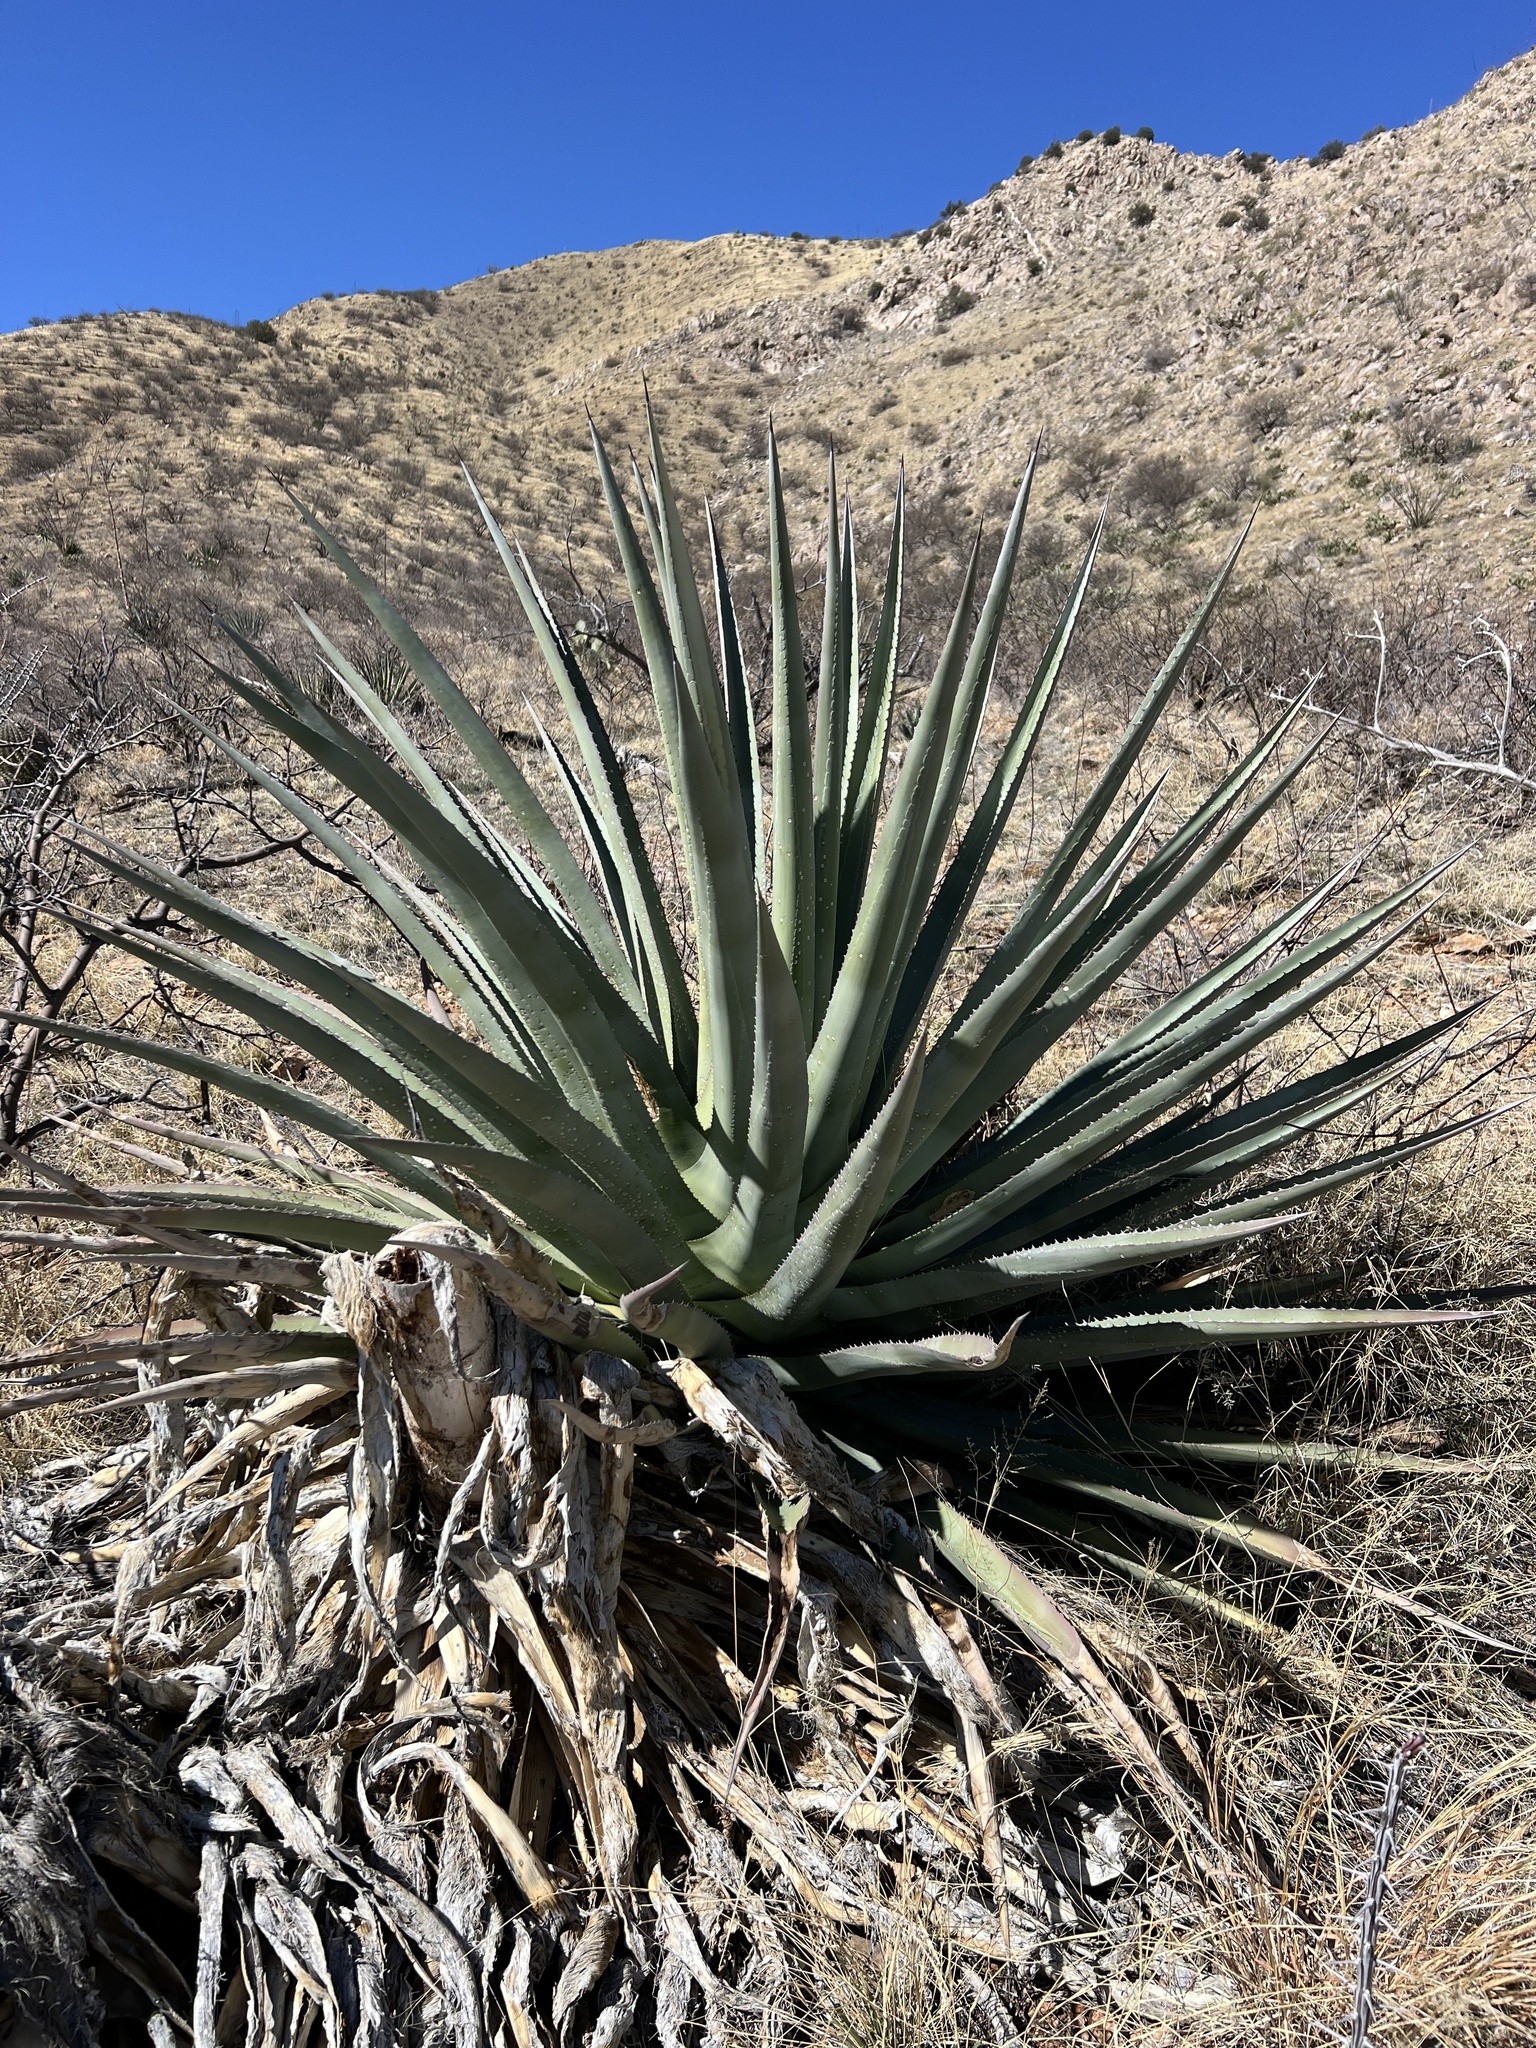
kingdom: Plantae
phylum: Tracheophyta
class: Liliopsida
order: Asparagales
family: Asparagaceae
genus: Agave
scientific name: Agave palmeri
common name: Palmer agave
